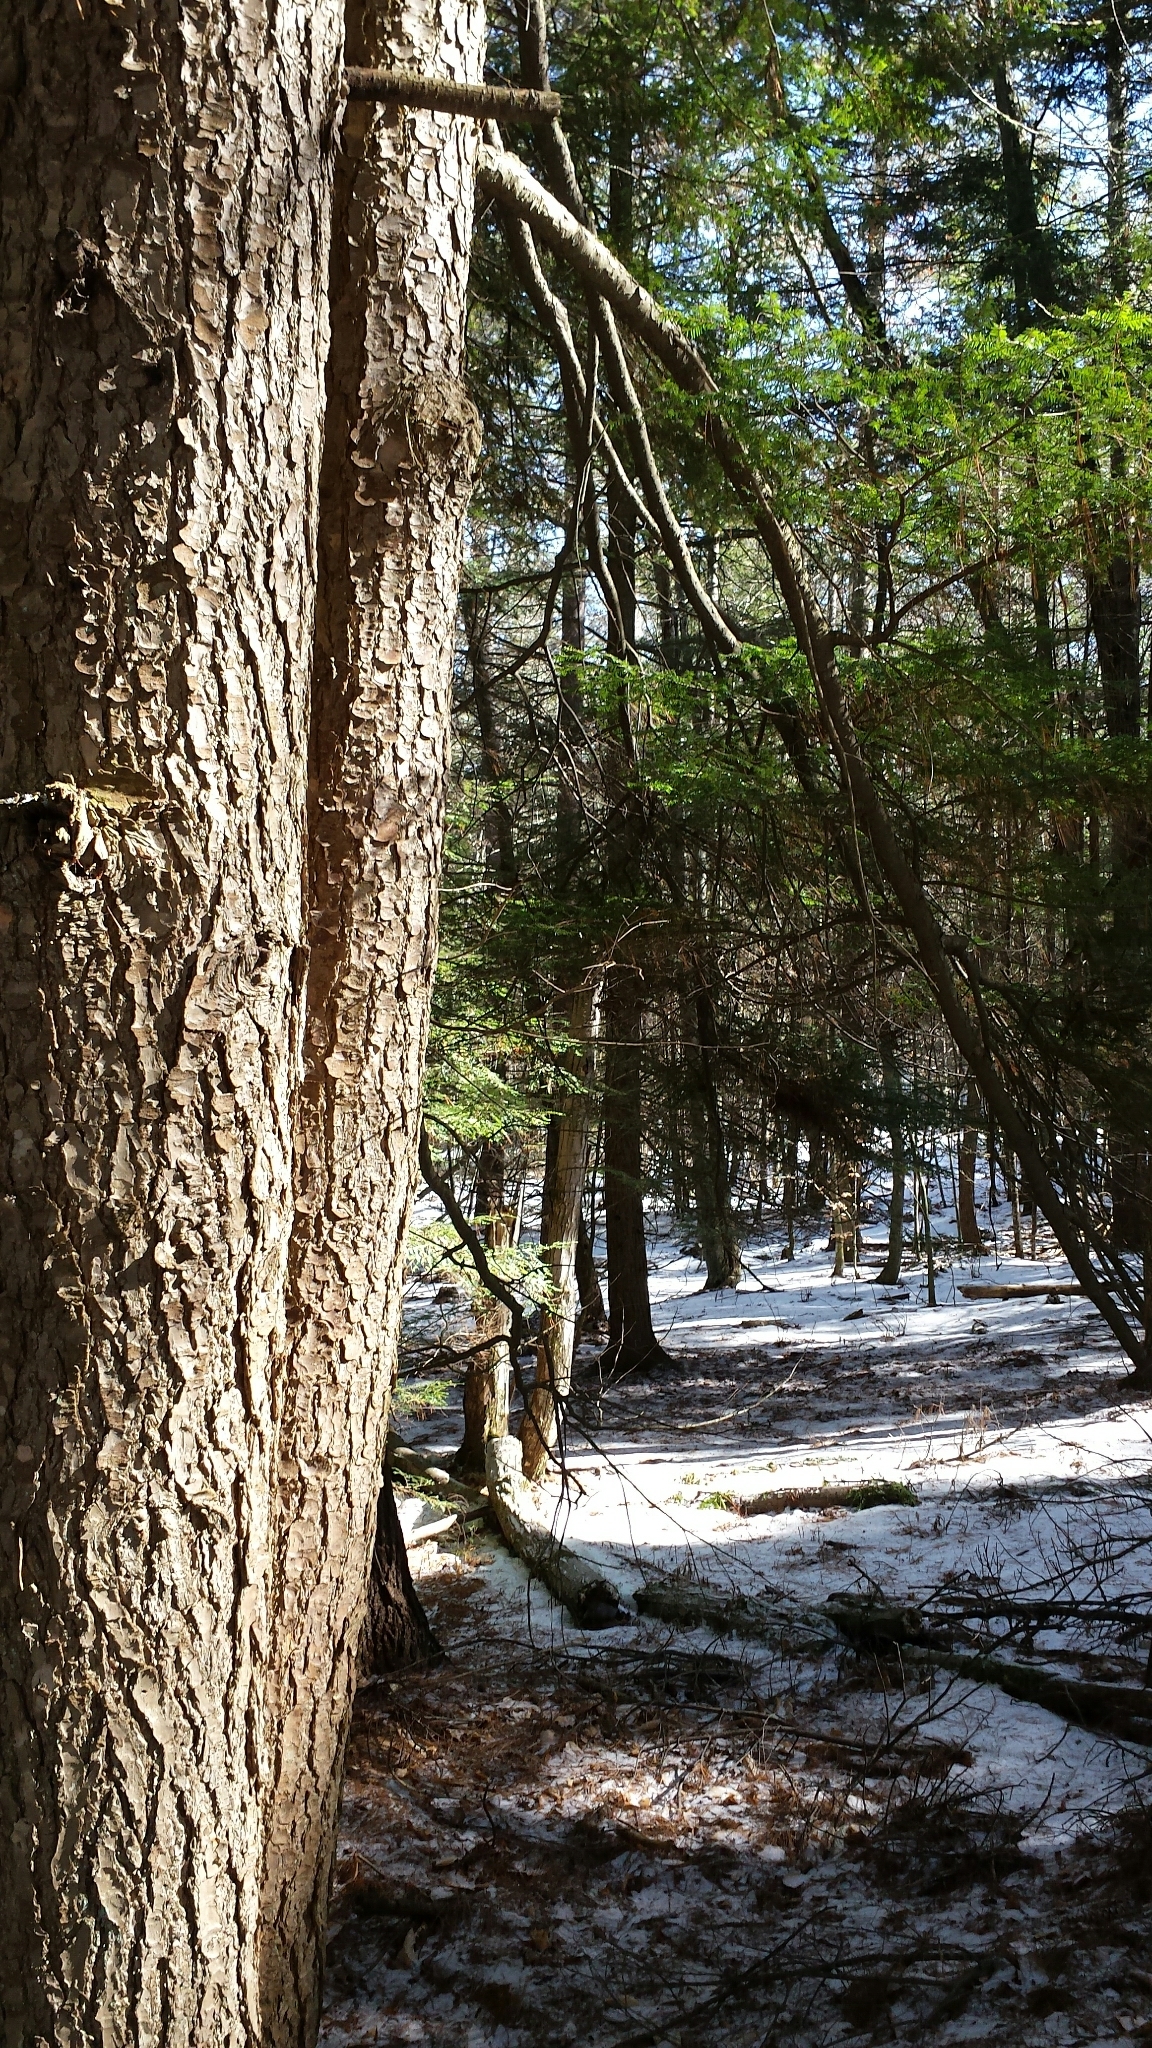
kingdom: Plantae
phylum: Tracheophyta
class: Pinopsida
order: Pinales
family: Pinaceae
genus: Tsuga
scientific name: Tsuga canadensis
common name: Eastern hemlock
